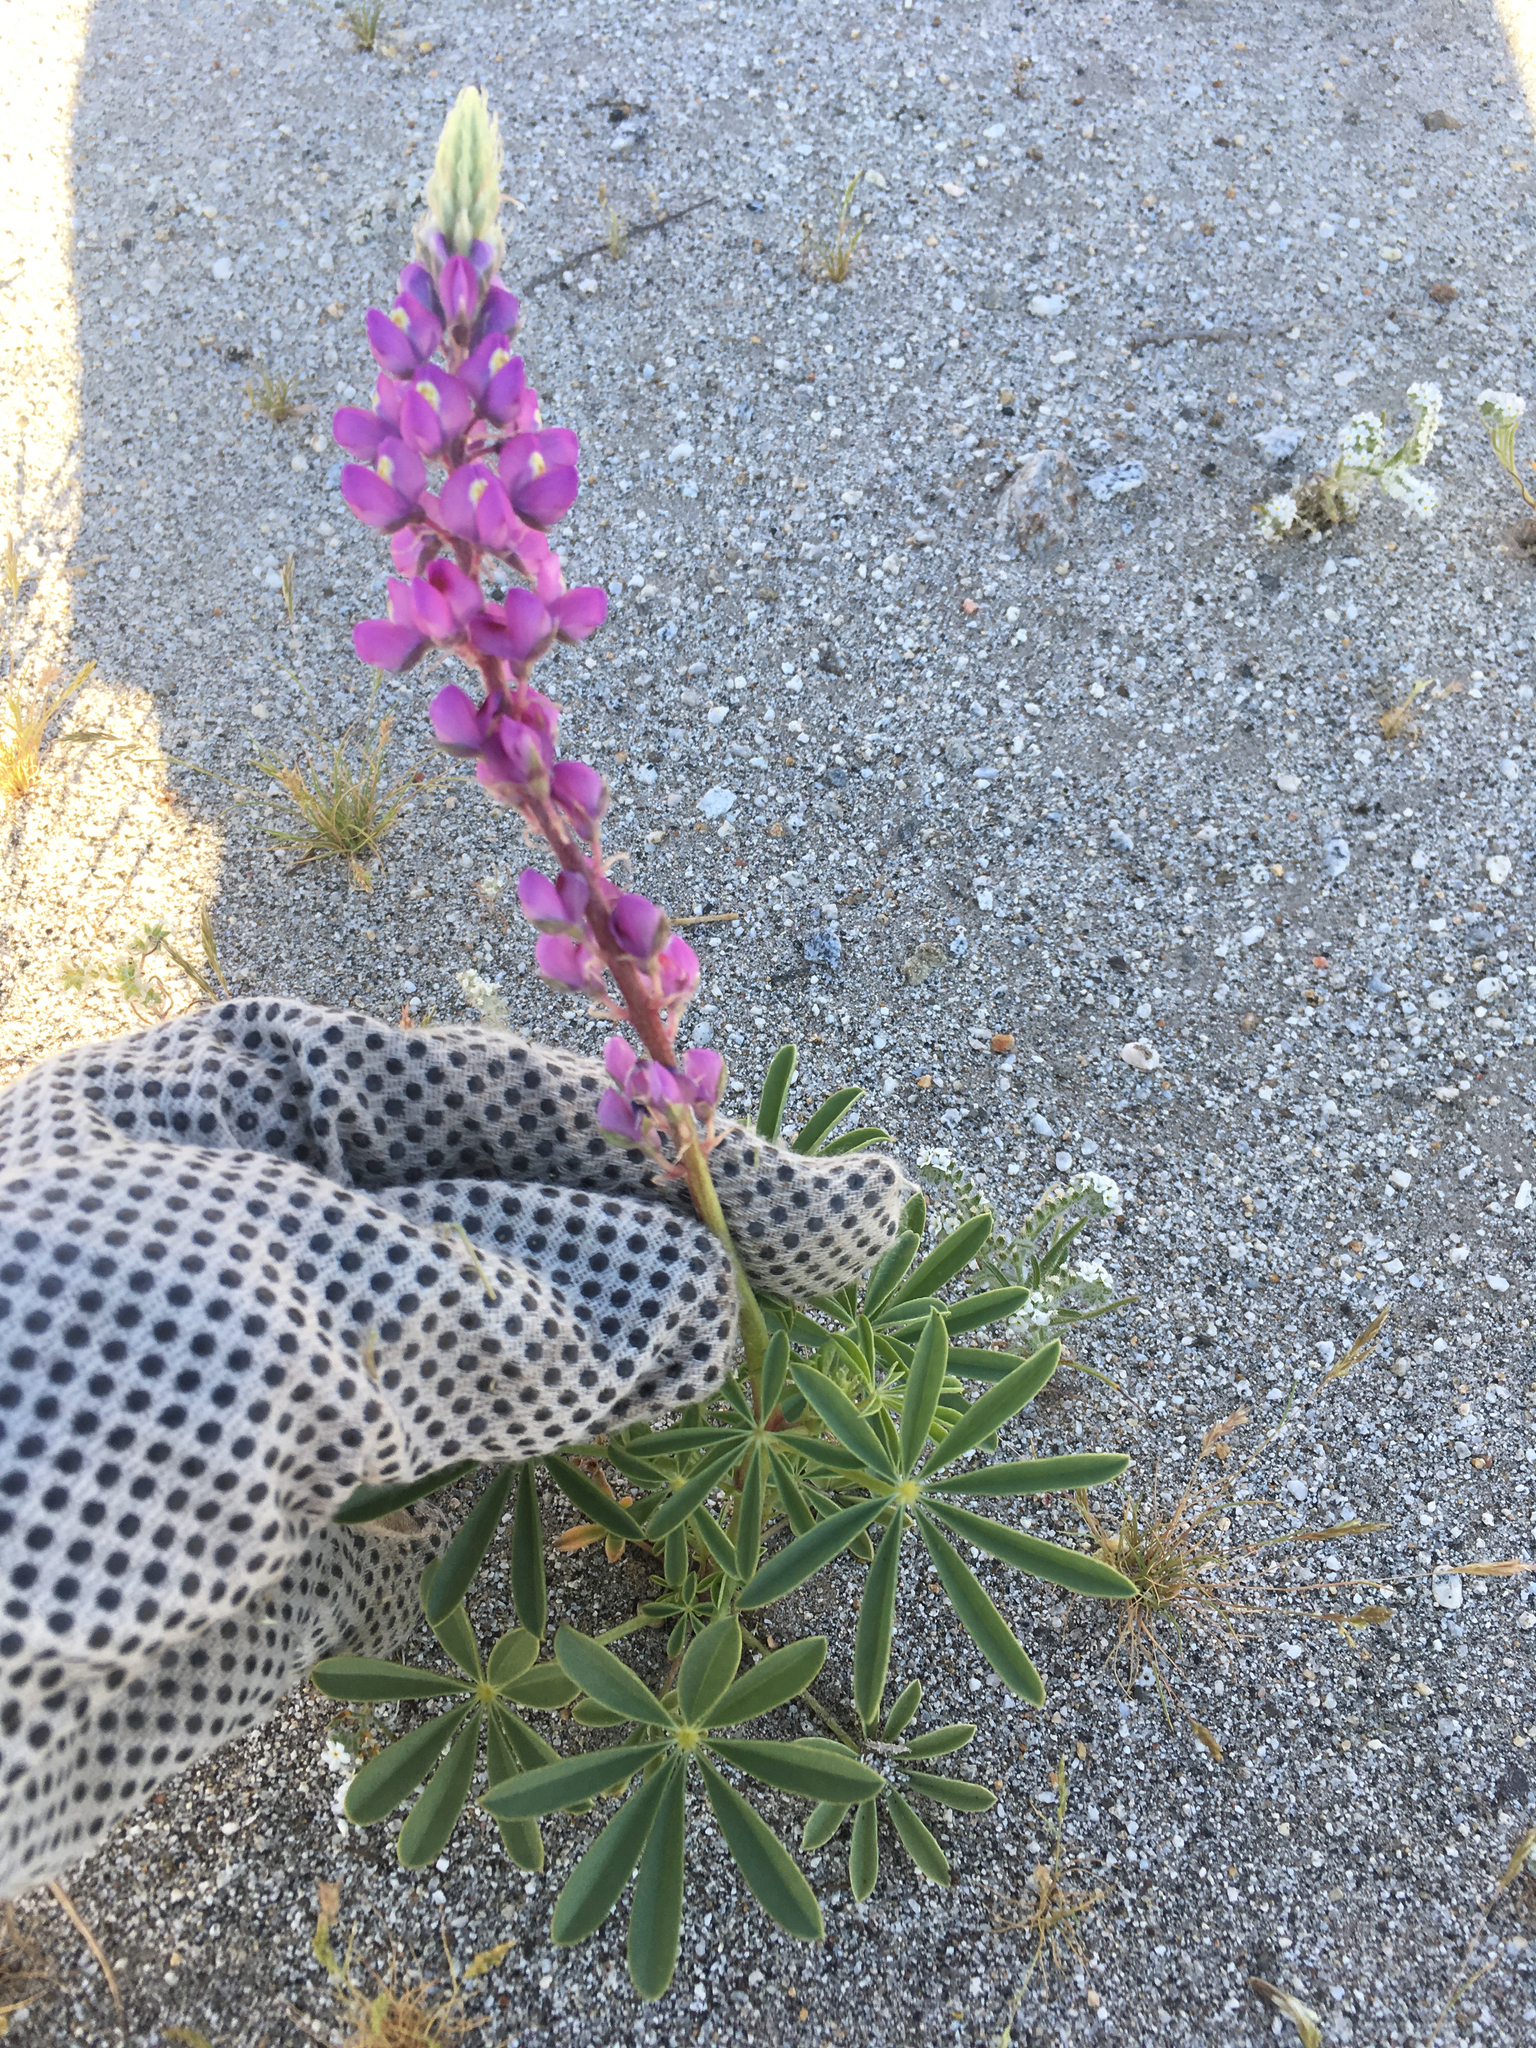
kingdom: Plantae
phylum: Tracheophyta
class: Magnoliopsida
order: Fabales
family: Fabaceae
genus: Lupinus
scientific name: Lupinus arizonicus
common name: Arizona lupine
